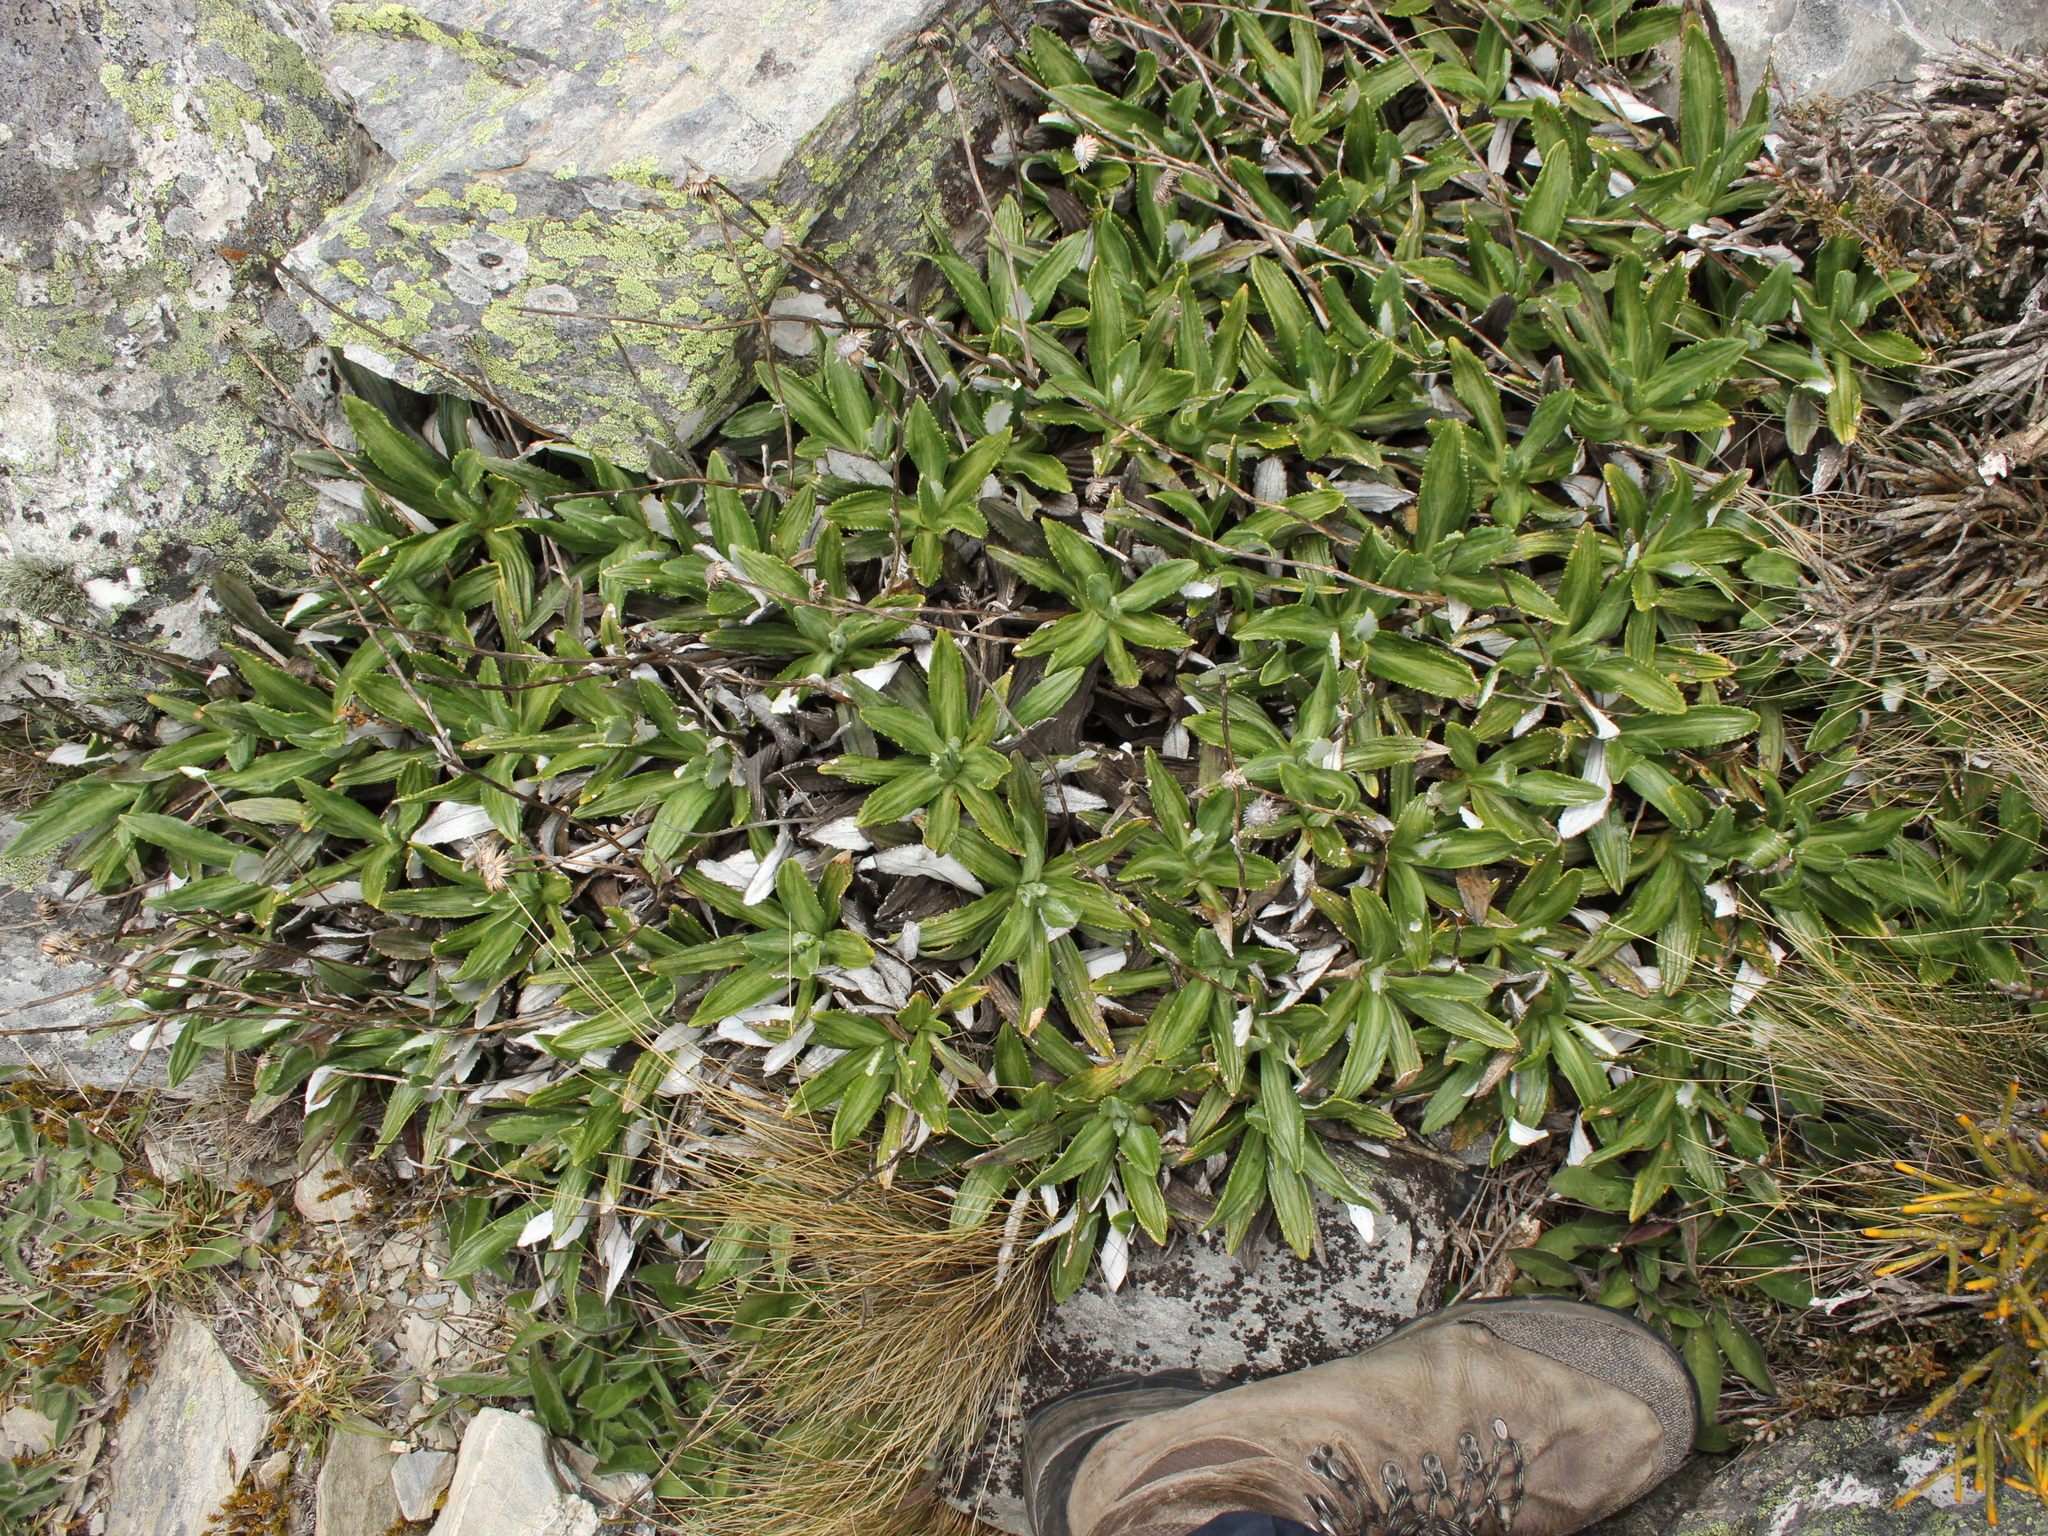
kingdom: Plantae
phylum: Tracheophyta
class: Magnoliopsida
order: Asterales
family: Asteraceae
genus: Celmisia
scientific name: Celmisia densiflora
